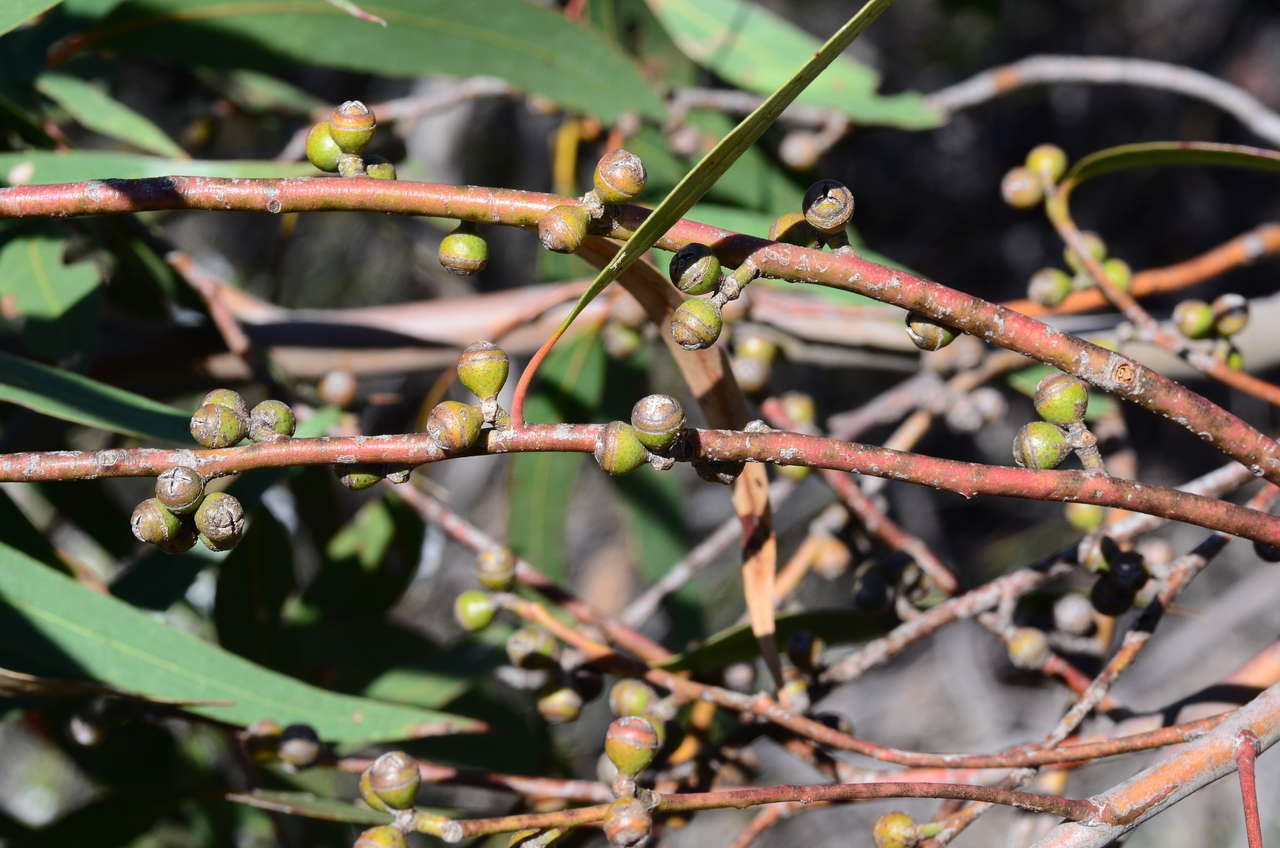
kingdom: Plantae
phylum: Tracheophyta
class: Magnoliopsida
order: Myrtales
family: Myrtaceae
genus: Eucalyptus
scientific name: Eucalyptus sabulosa
